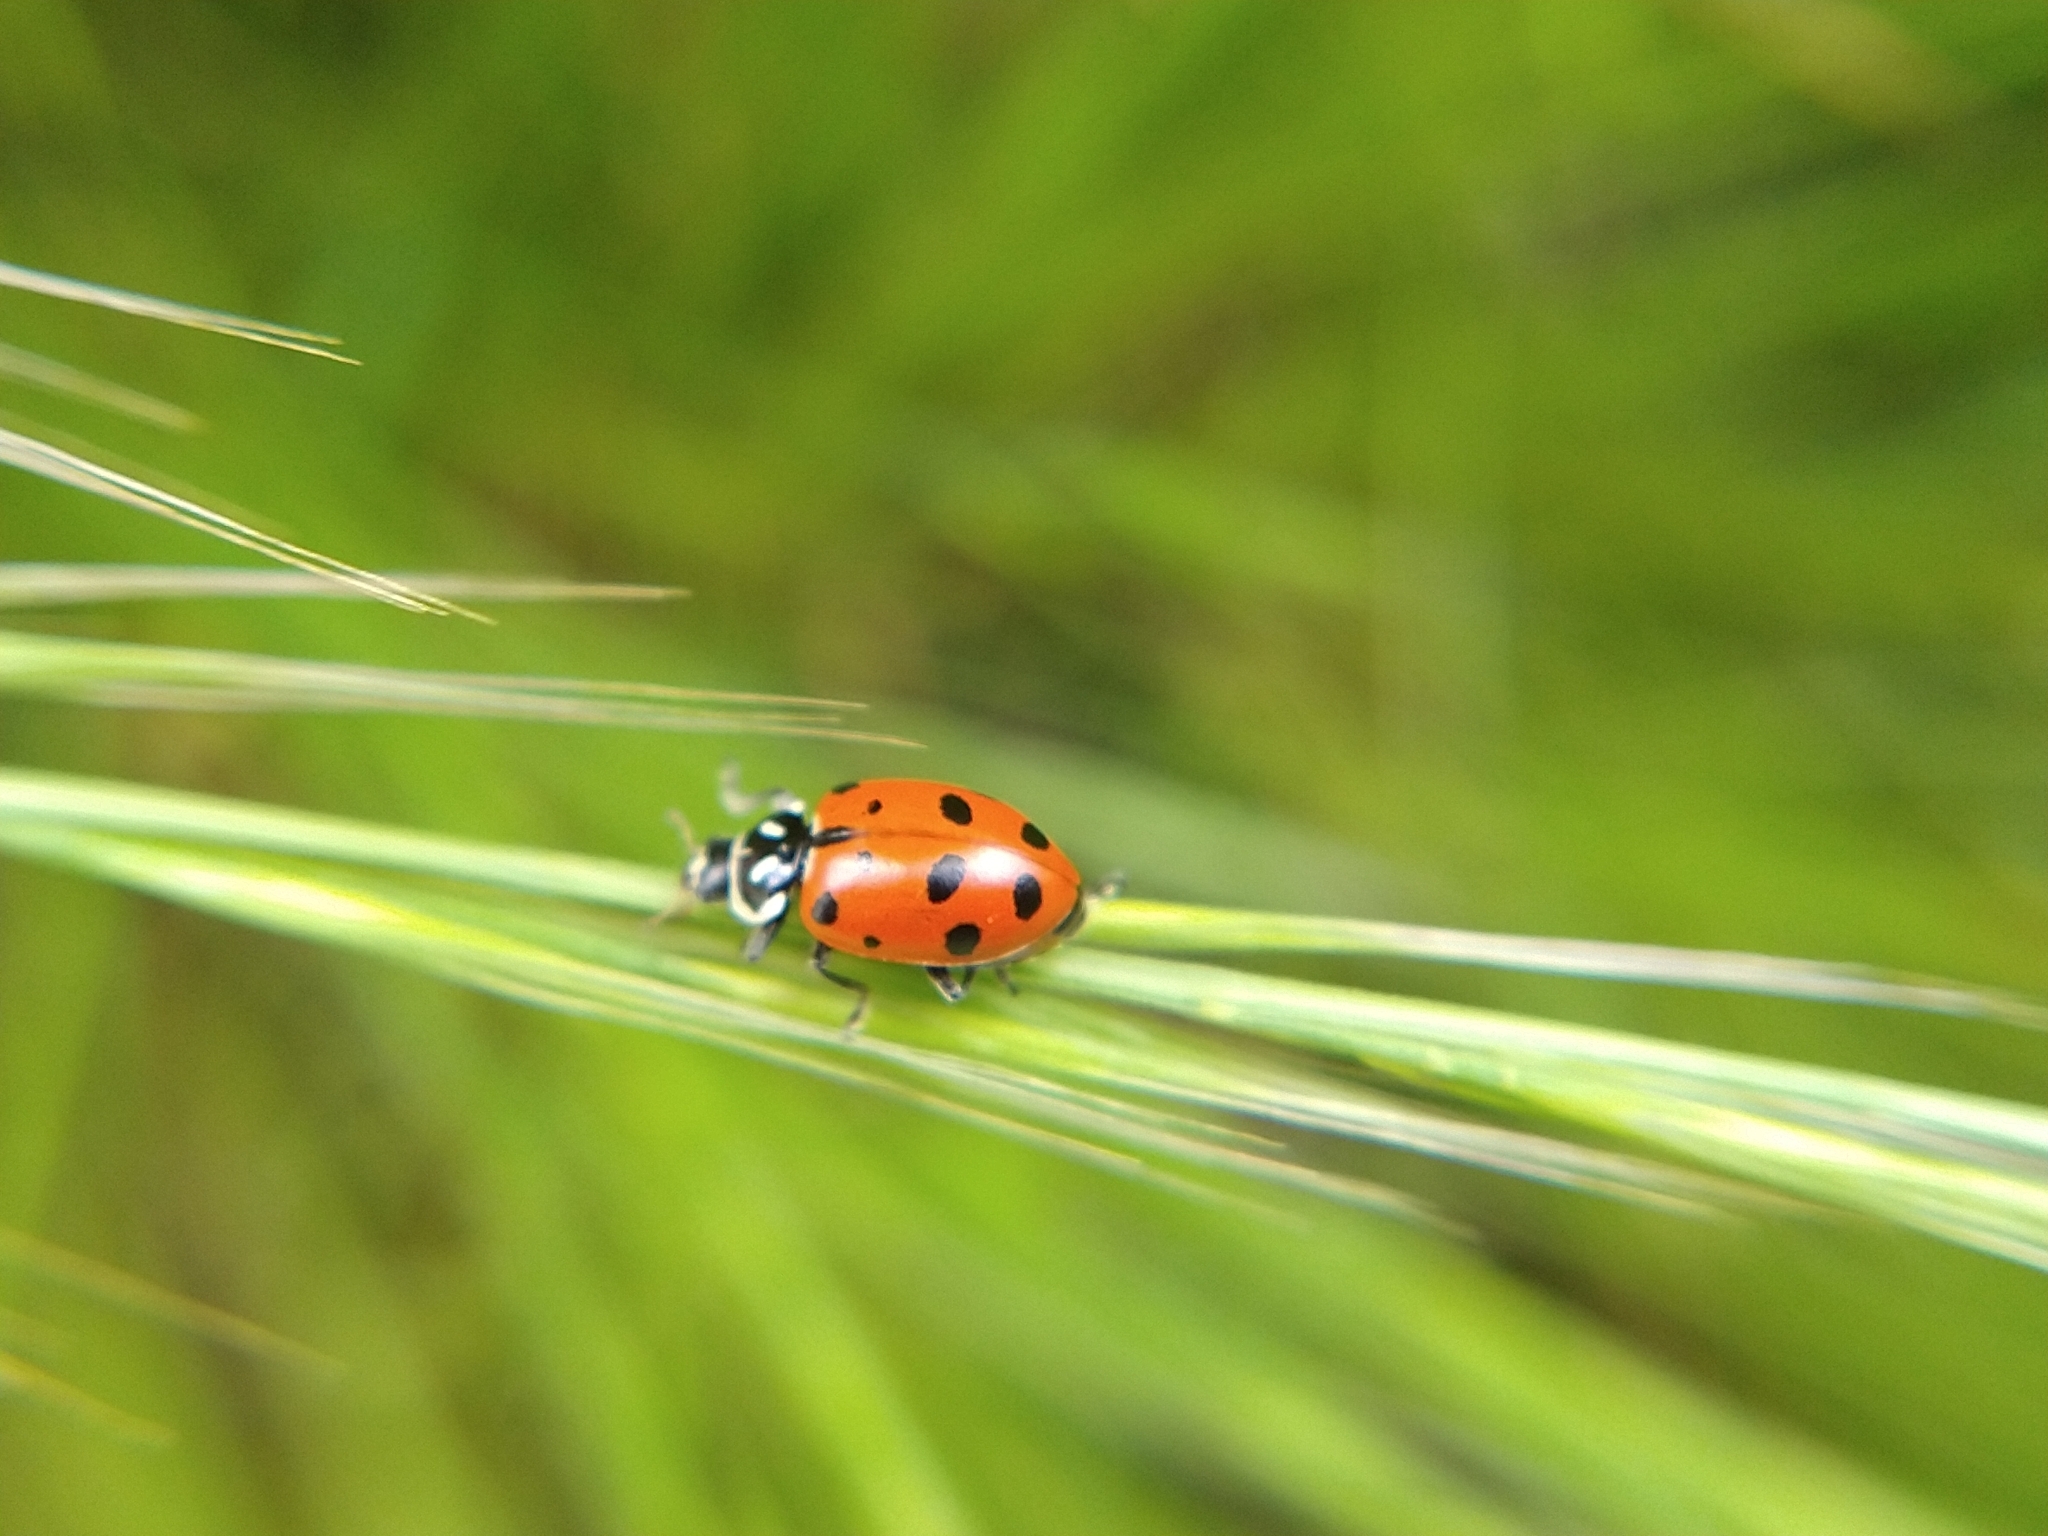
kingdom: Animalia
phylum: Arthropoda
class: Insecta
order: Coleoptera
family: Coccinellidae
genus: Hippodamia
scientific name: Hippodamia convergens
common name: Convergent lady beetle
